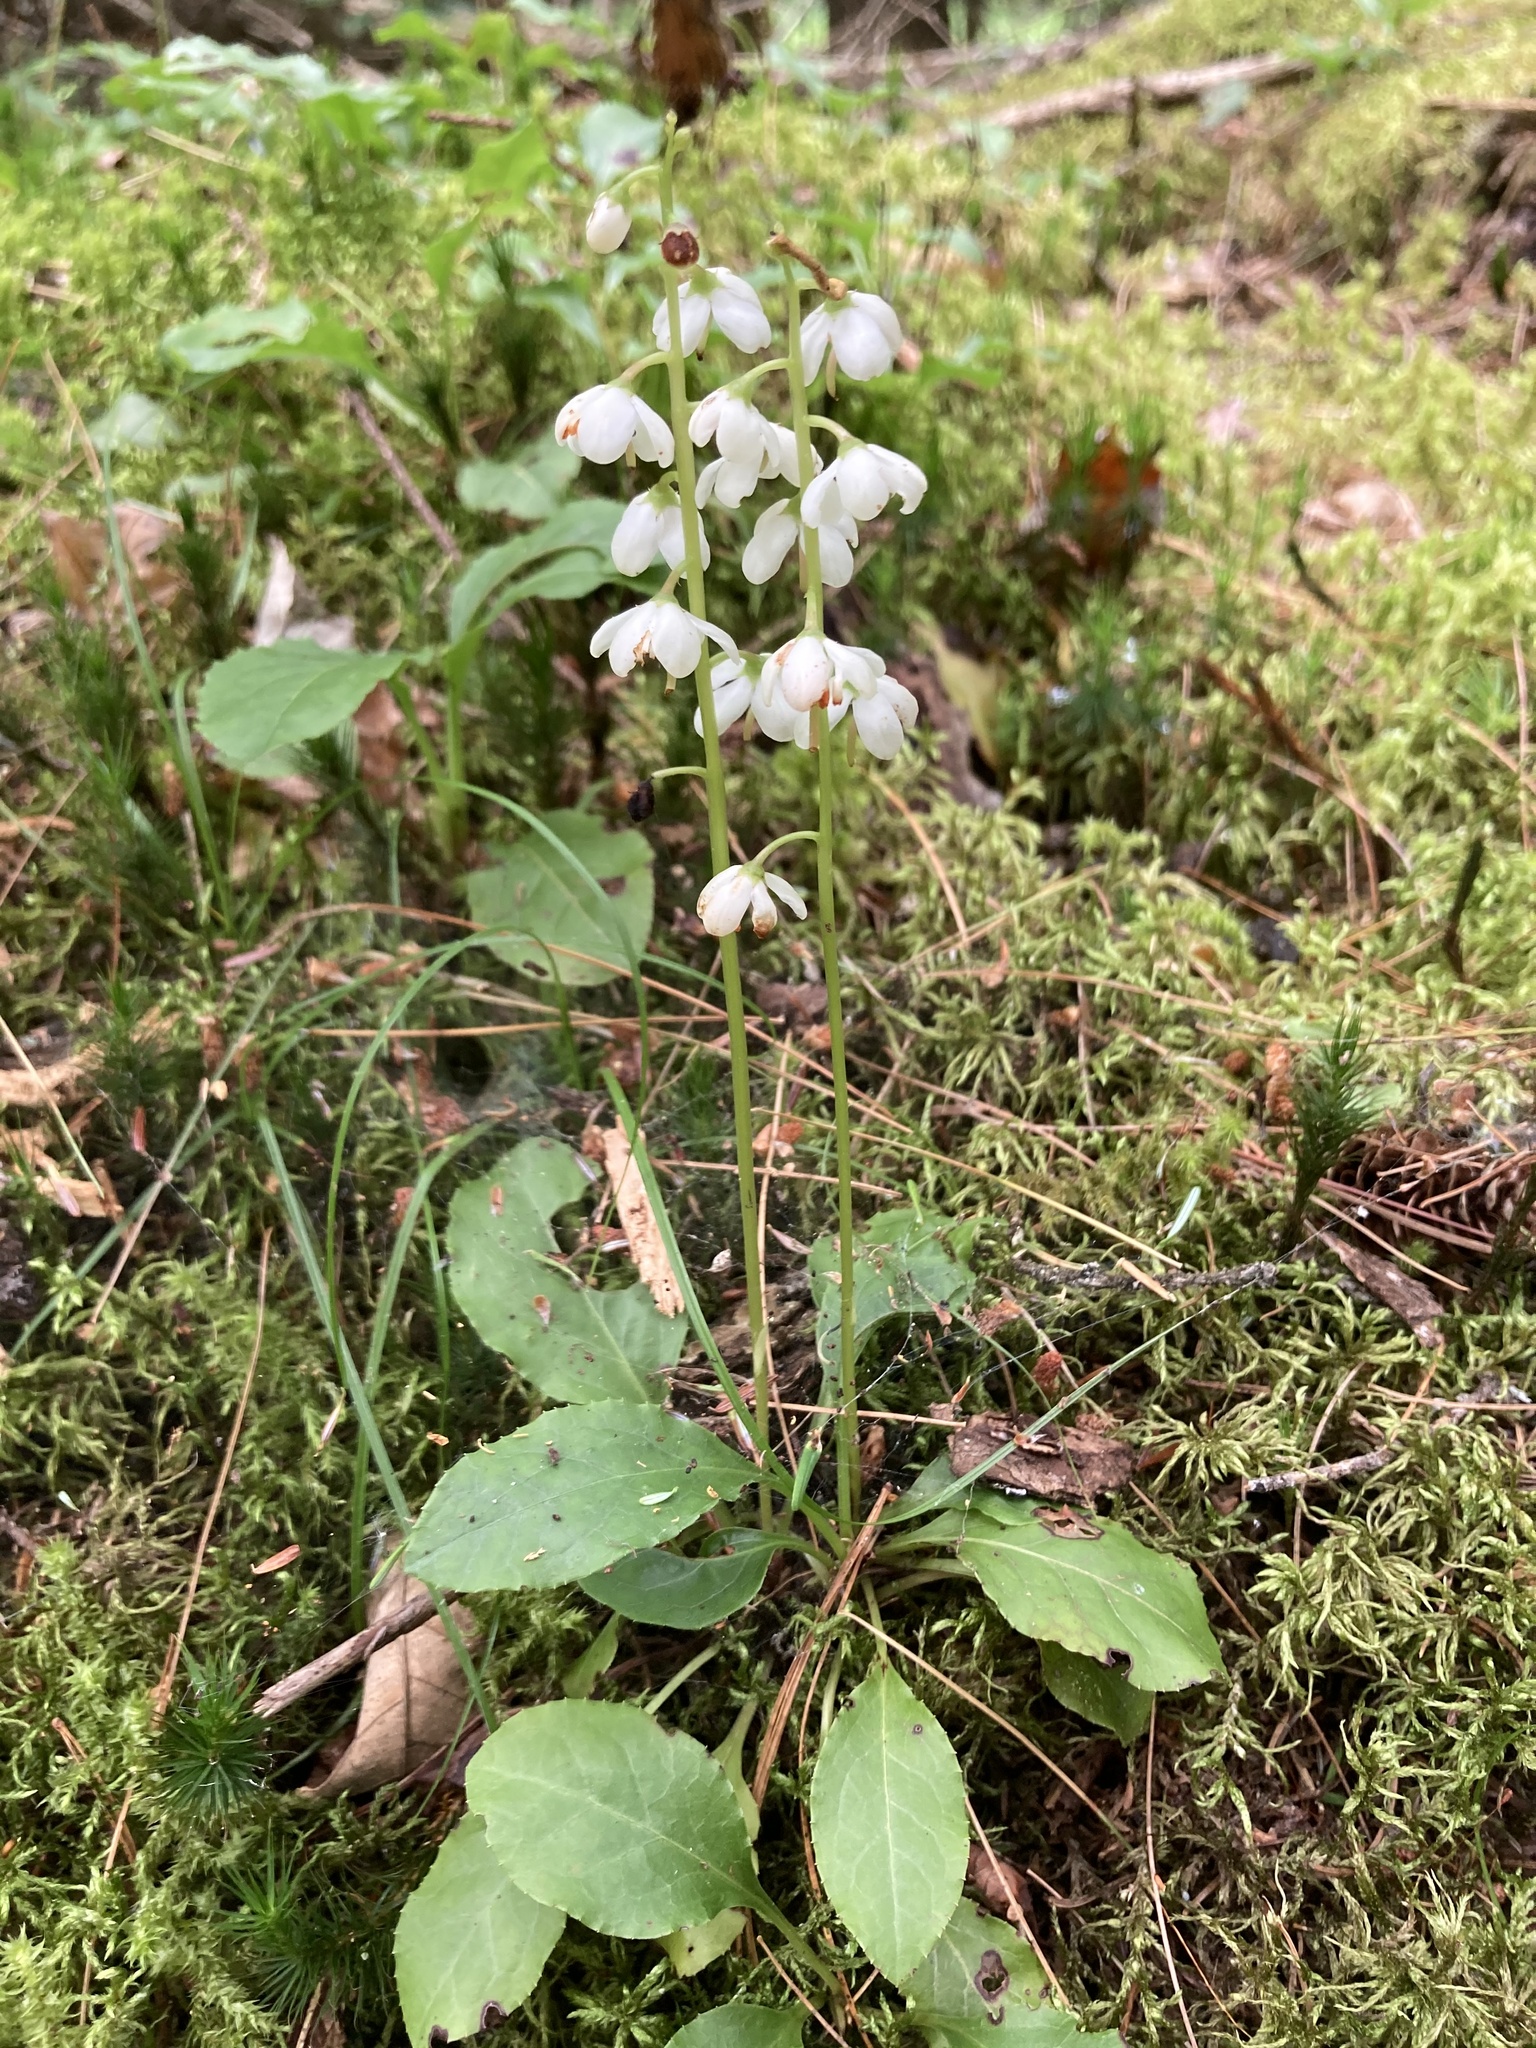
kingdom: Plantae
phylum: Tracheophyta
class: Magnoliopsida
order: Ericales
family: Ericaceae
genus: Pyrola
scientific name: Pyrola elliptica
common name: Shinleaf
